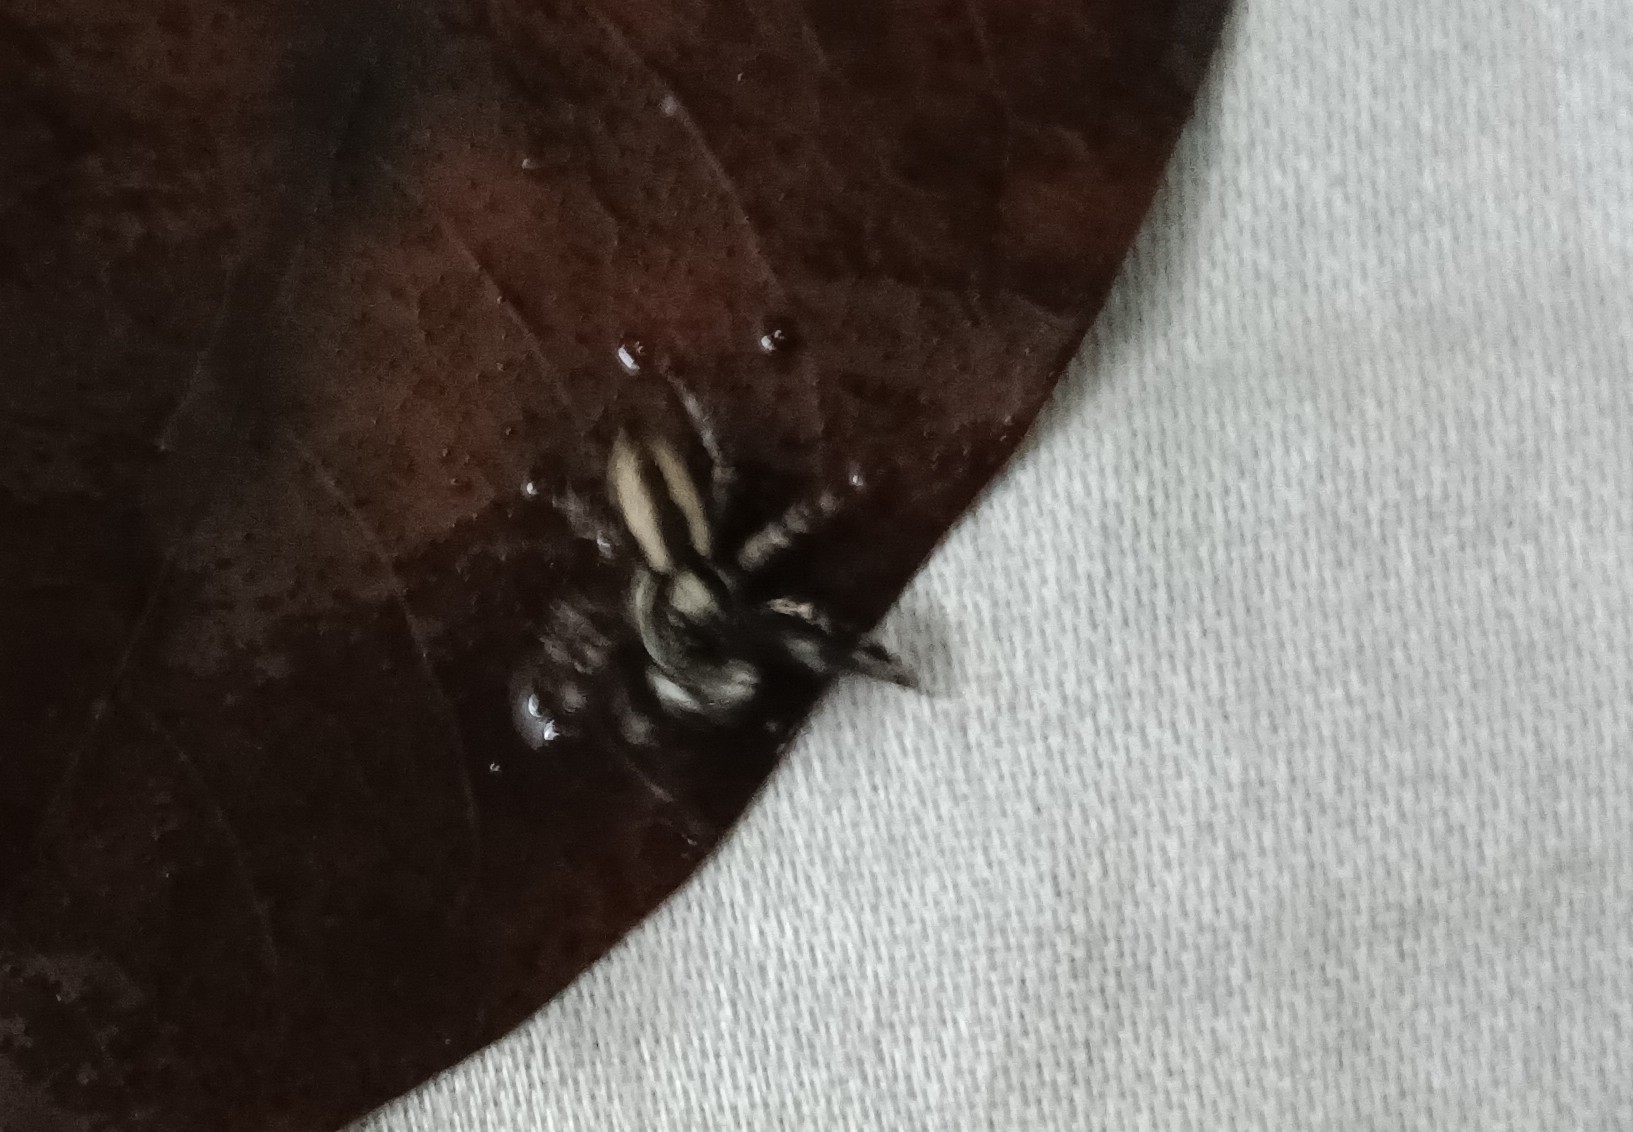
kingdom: Animalia
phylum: Arthropoda
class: Arachnida
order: Araneae
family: Salticidae
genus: Menemerus
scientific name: Menemerus bivittatus
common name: Gray wall jumper
